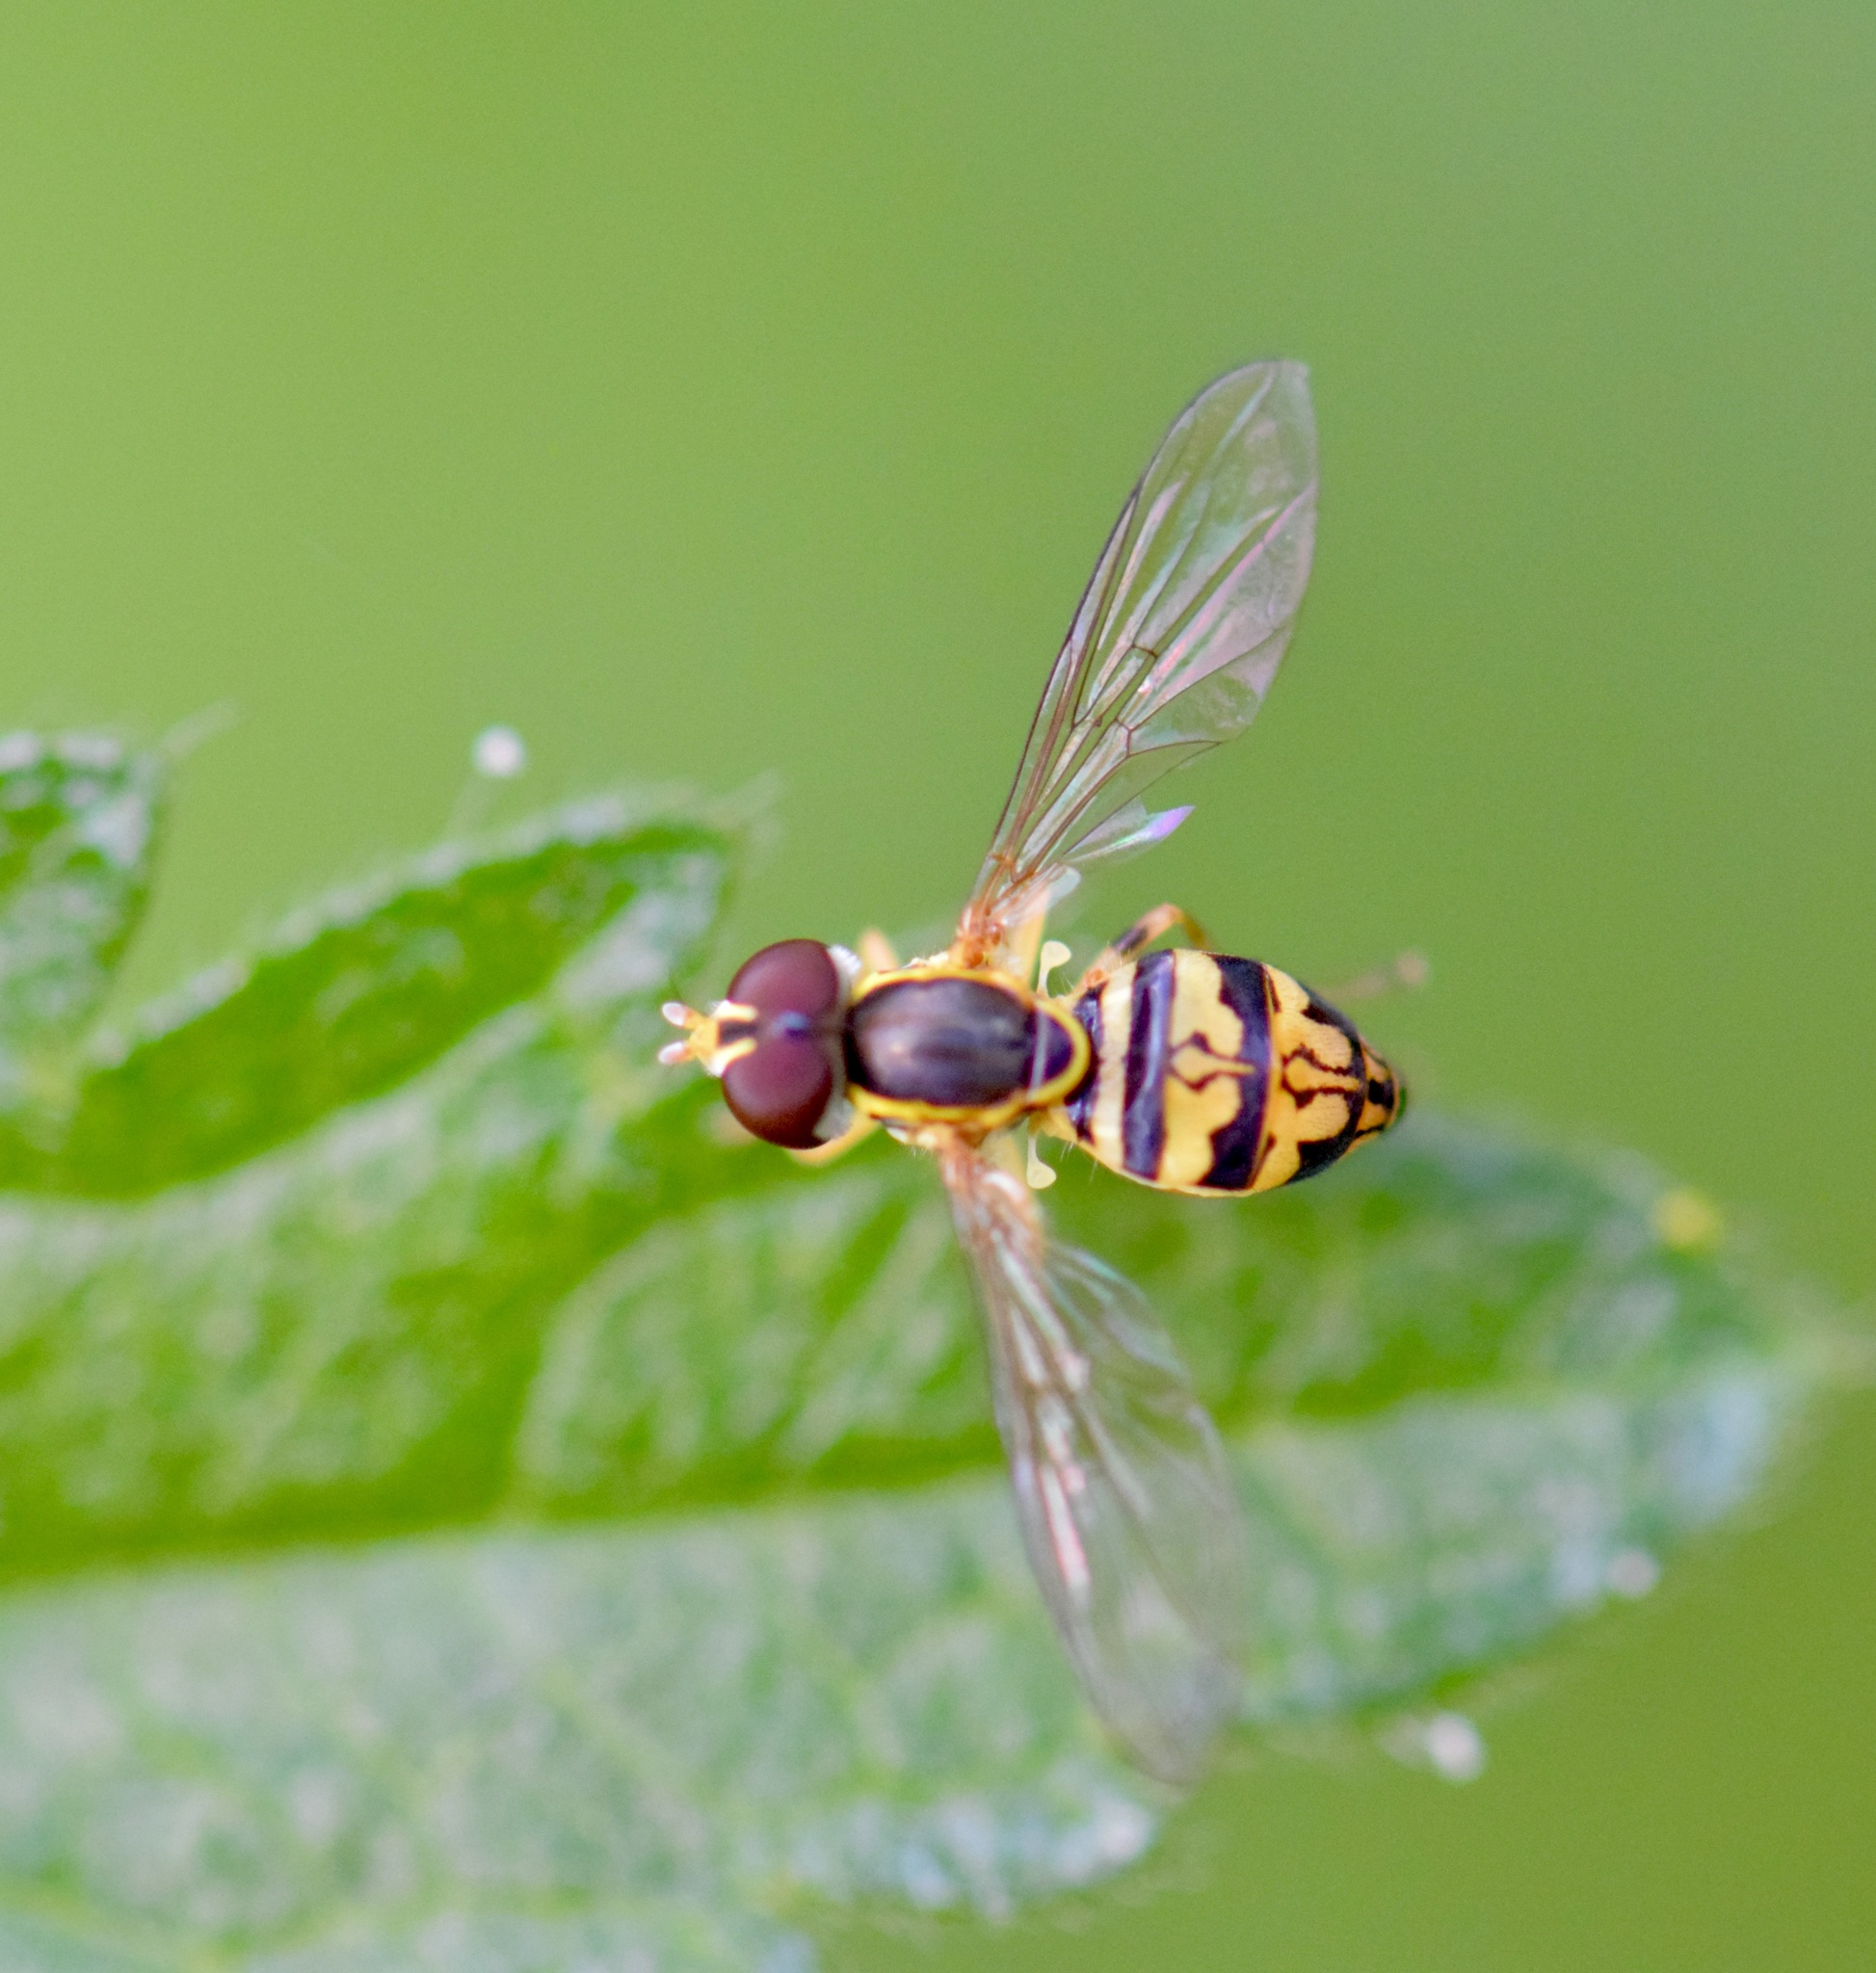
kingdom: Animalia
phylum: Arthropoda
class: Insecta
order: Diptera
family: Syrphidae
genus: Toxomerus
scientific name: Toxomerus geminatus
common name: Eastern calligrapher
